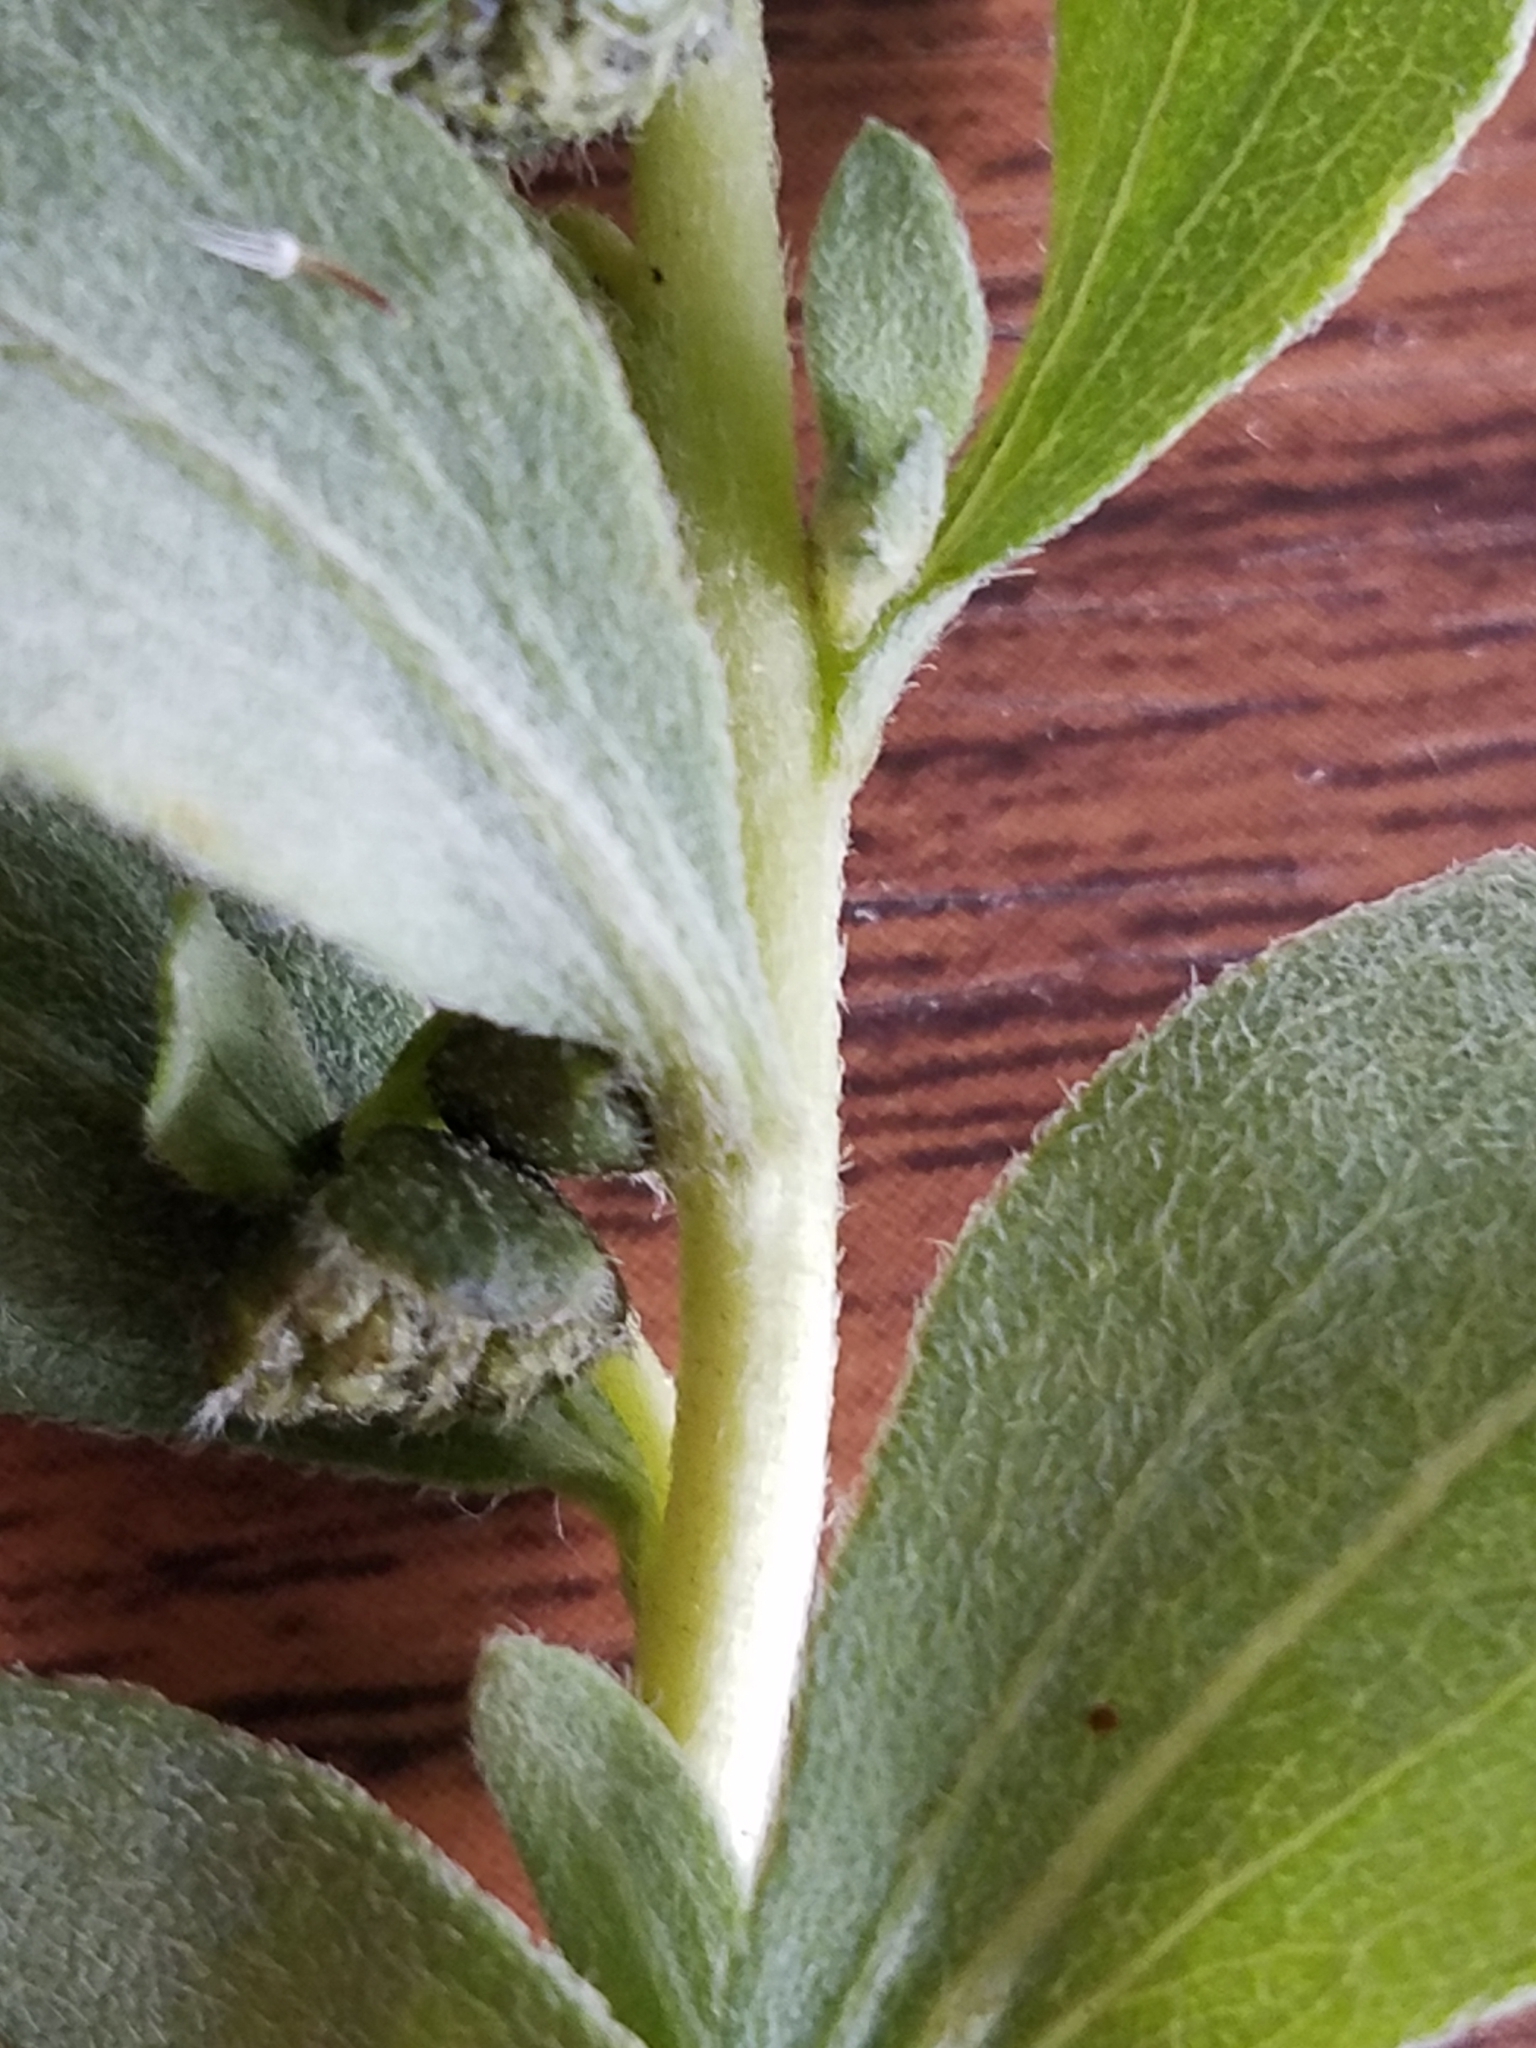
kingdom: Plantae
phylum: Tracheophyta
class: Magnoliopsida
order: Asterales
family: Asteraceae
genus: Iva
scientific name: Iva axillaris
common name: Poverty sumpweed
